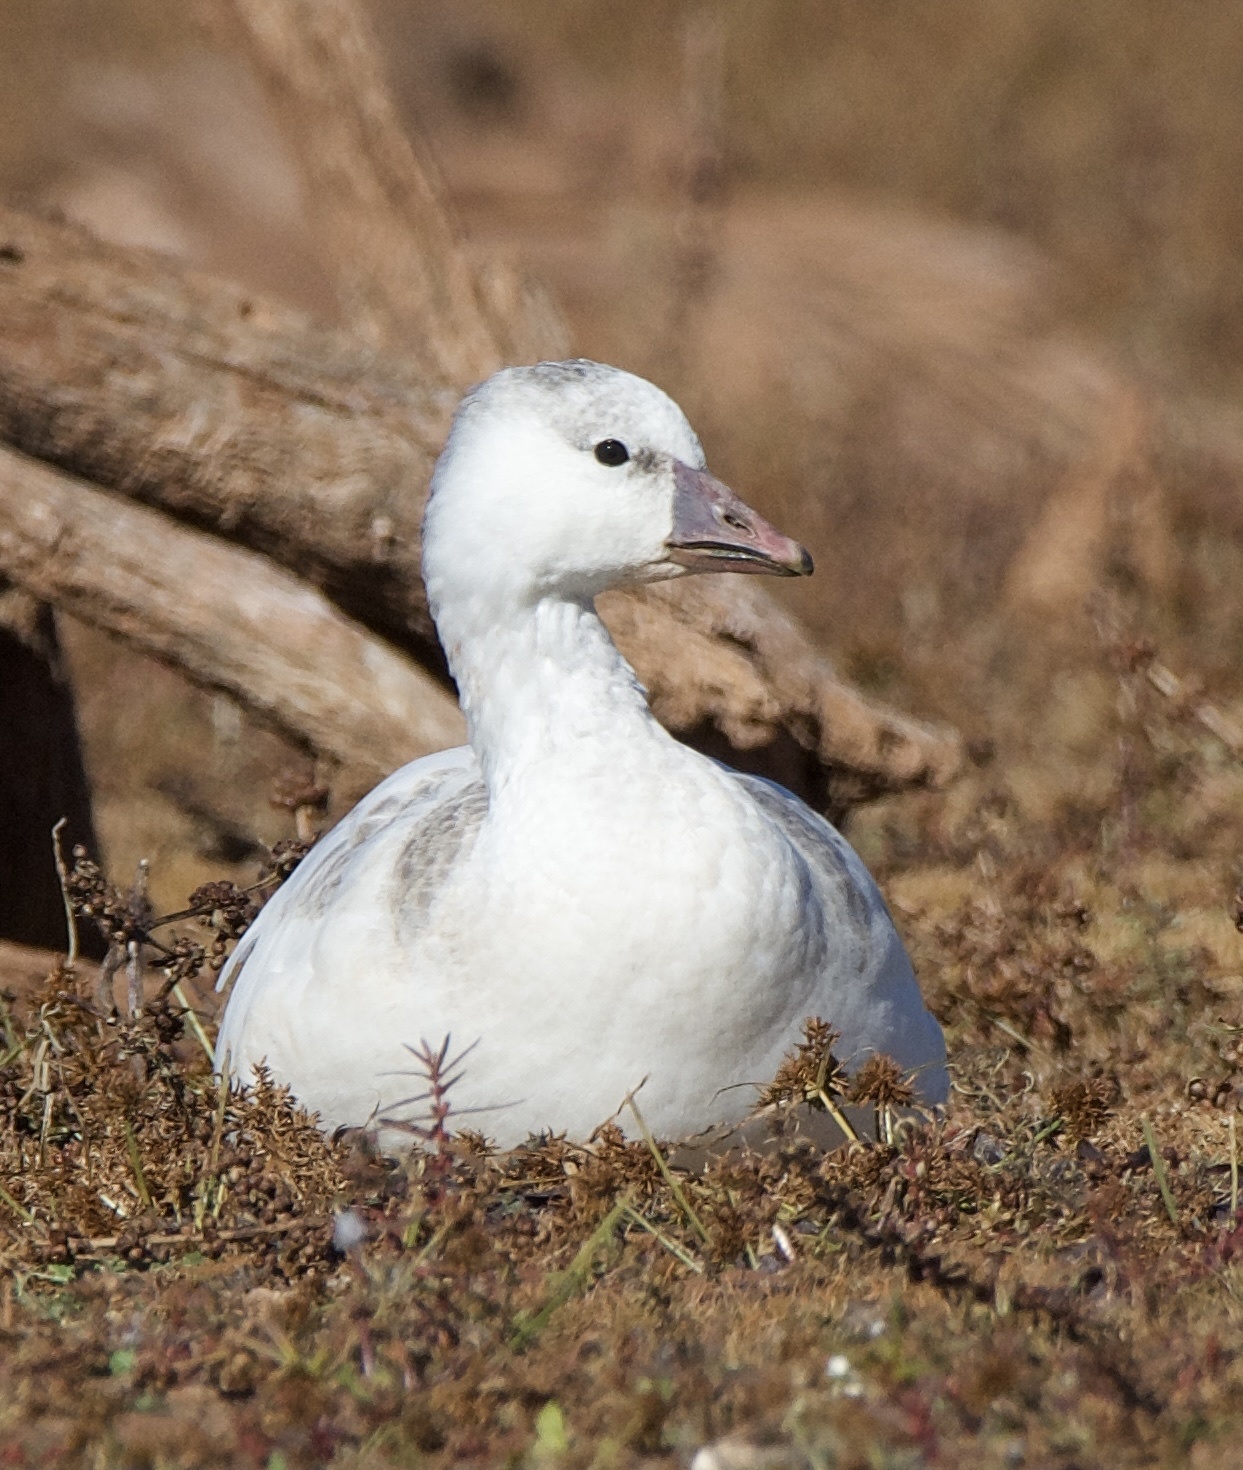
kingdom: Animalia
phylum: Chordata
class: Aves
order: Anseriformes
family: Anatidae
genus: Anser
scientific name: Anser rossii
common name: Ross's goose
